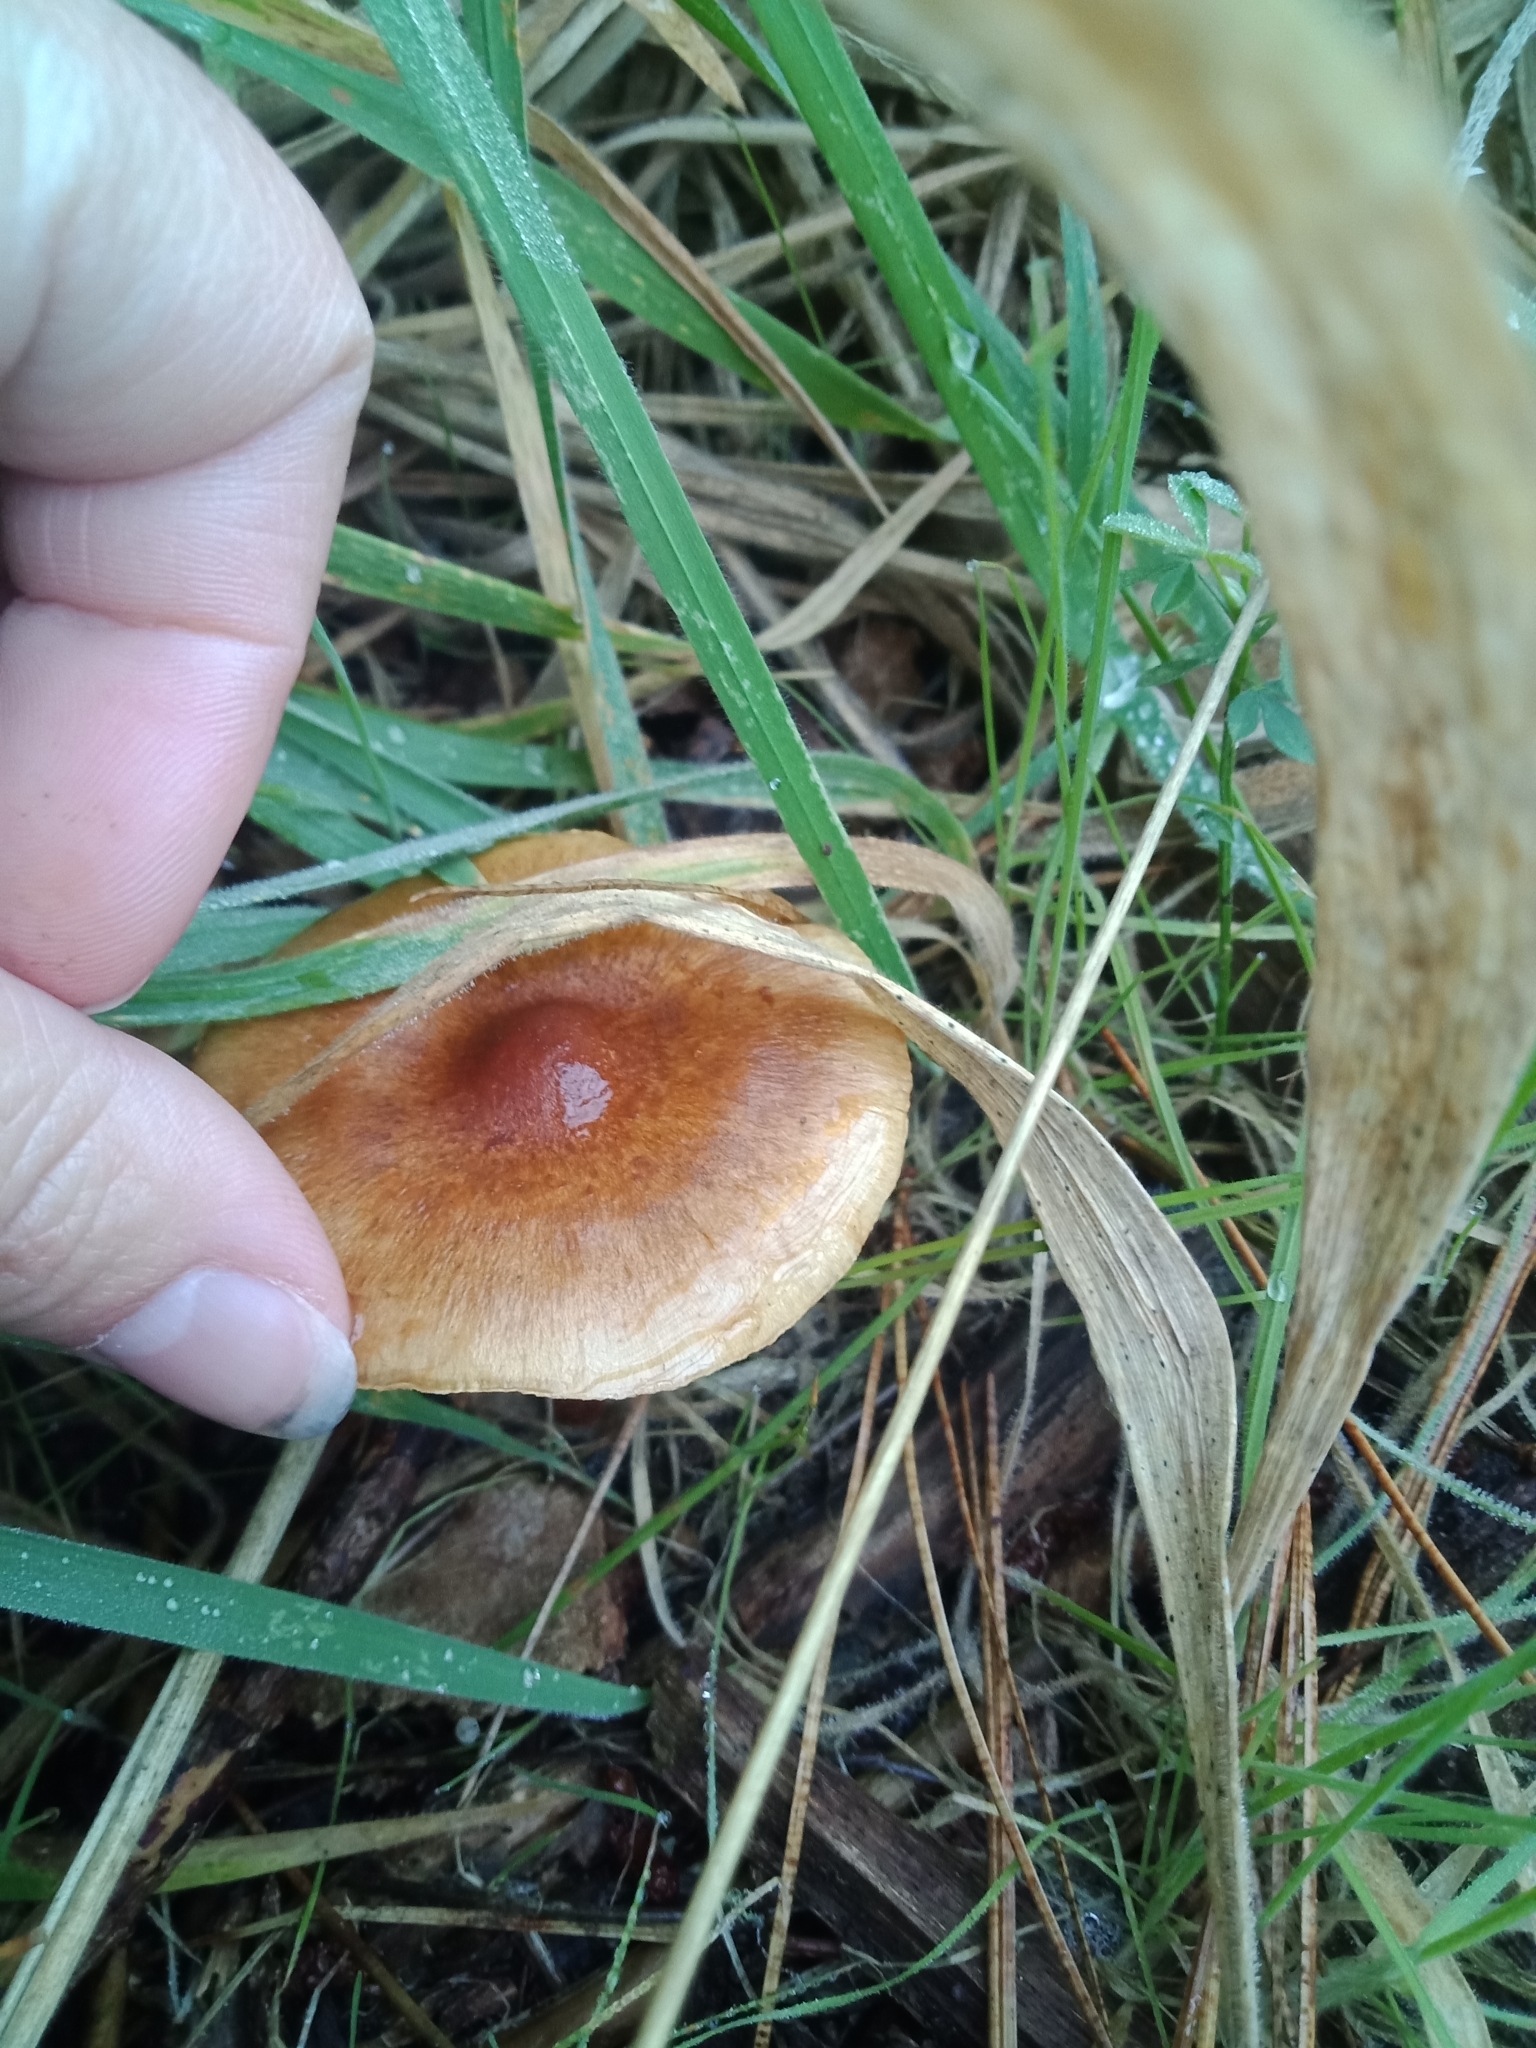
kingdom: Fungi
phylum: Basidiomycota
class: Agaricomycetes
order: Agaricales
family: Strophariaceae
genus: Pholiota
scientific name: Pholiota multicingulata
